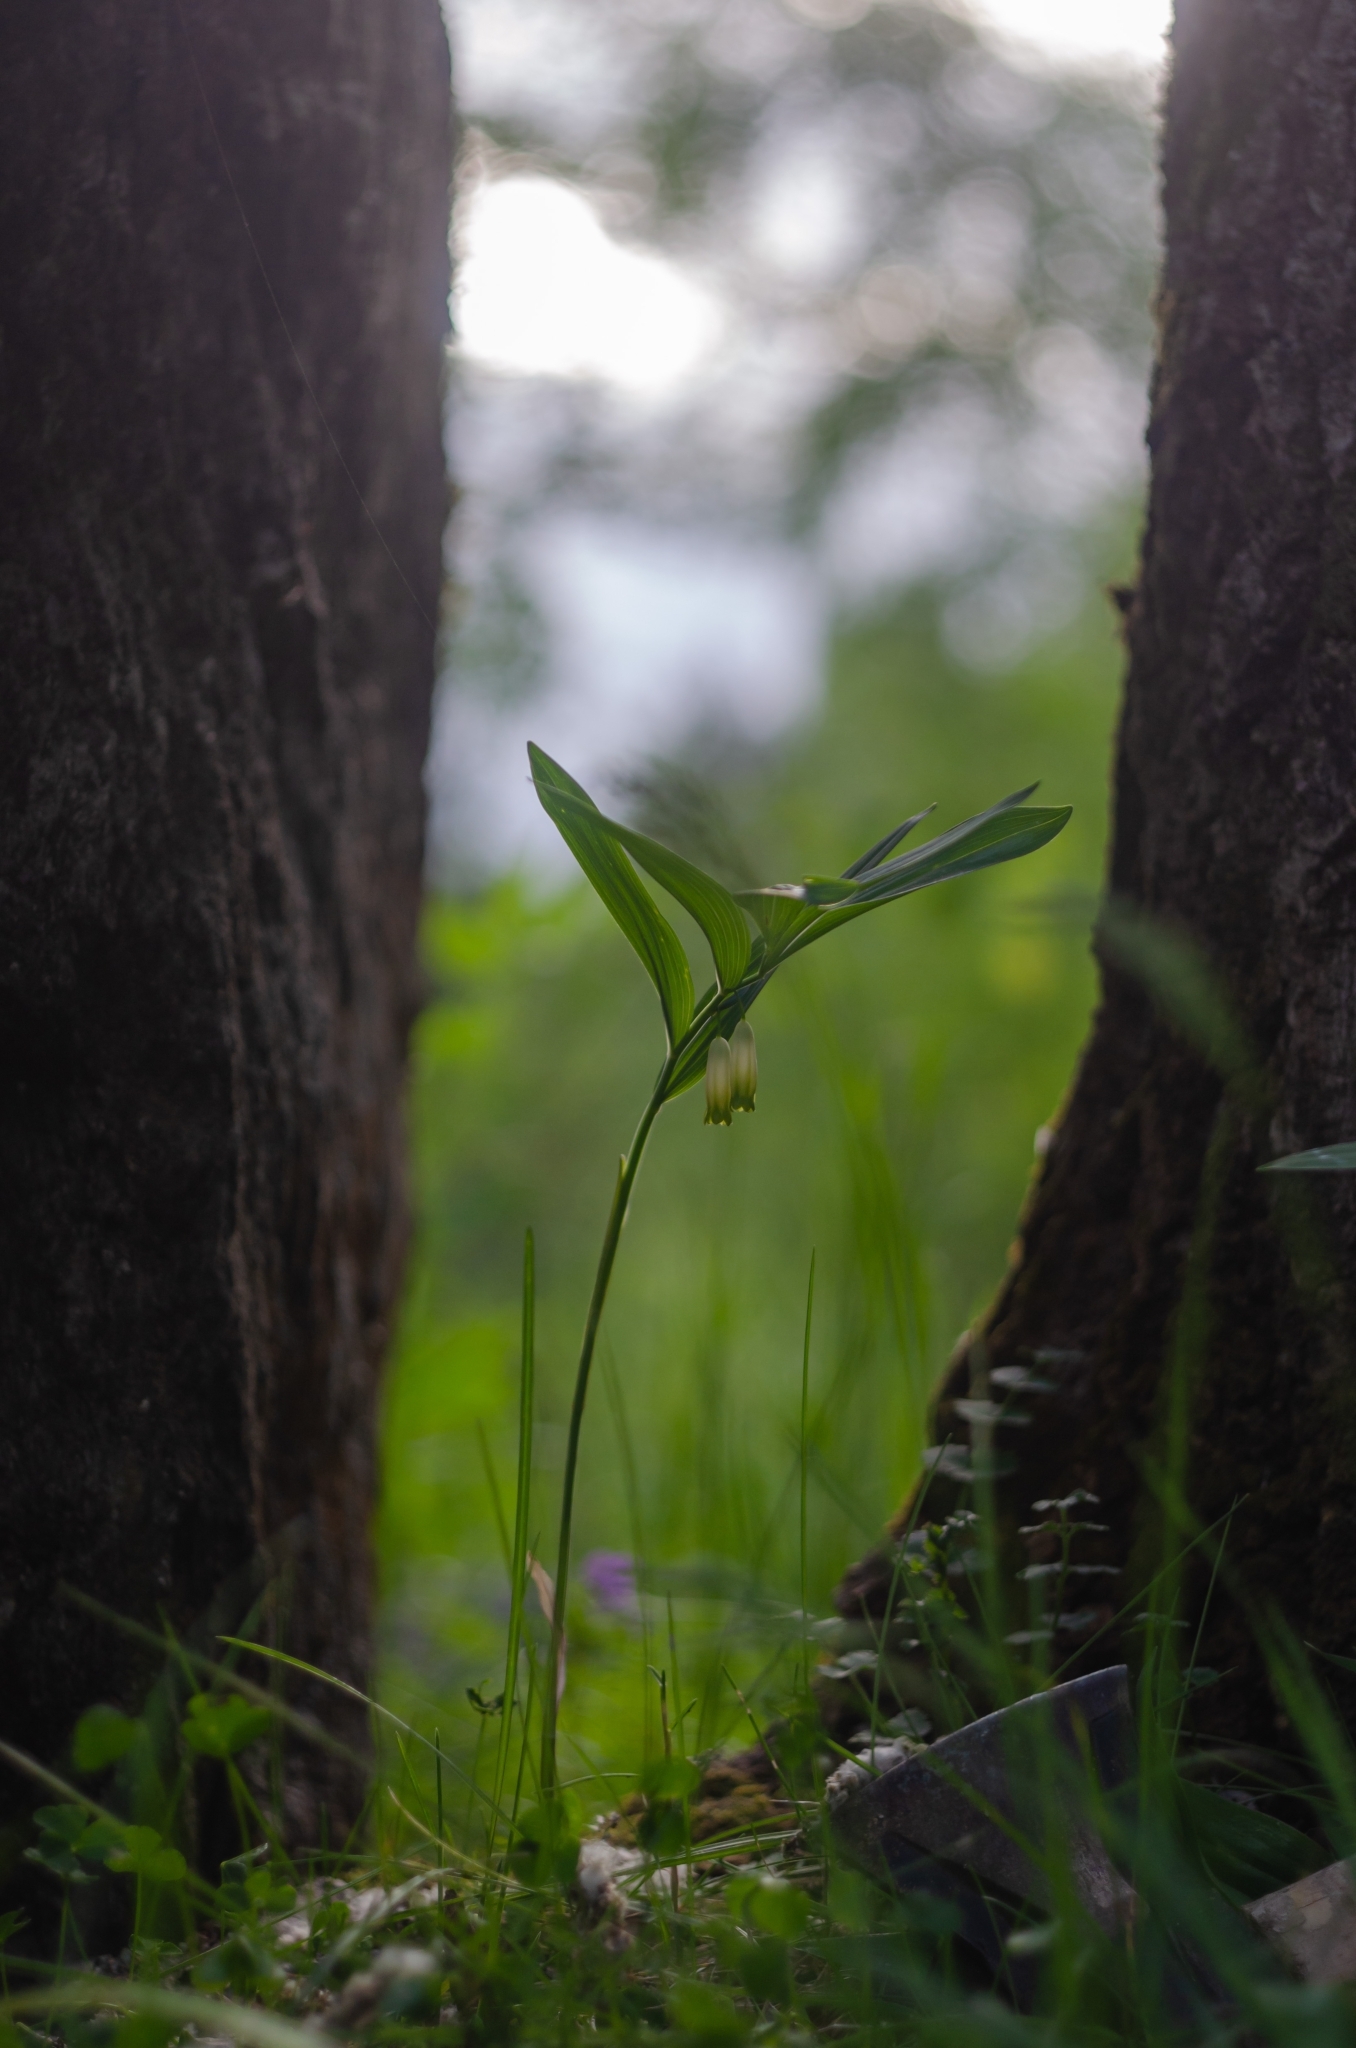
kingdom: Plantae
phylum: Tracheophyta
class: Liliopsida
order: Asparagales
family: Asparagaceae
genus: Polygonatum
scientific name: Polygonatum odoratum
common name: Angular solomon's-seal
